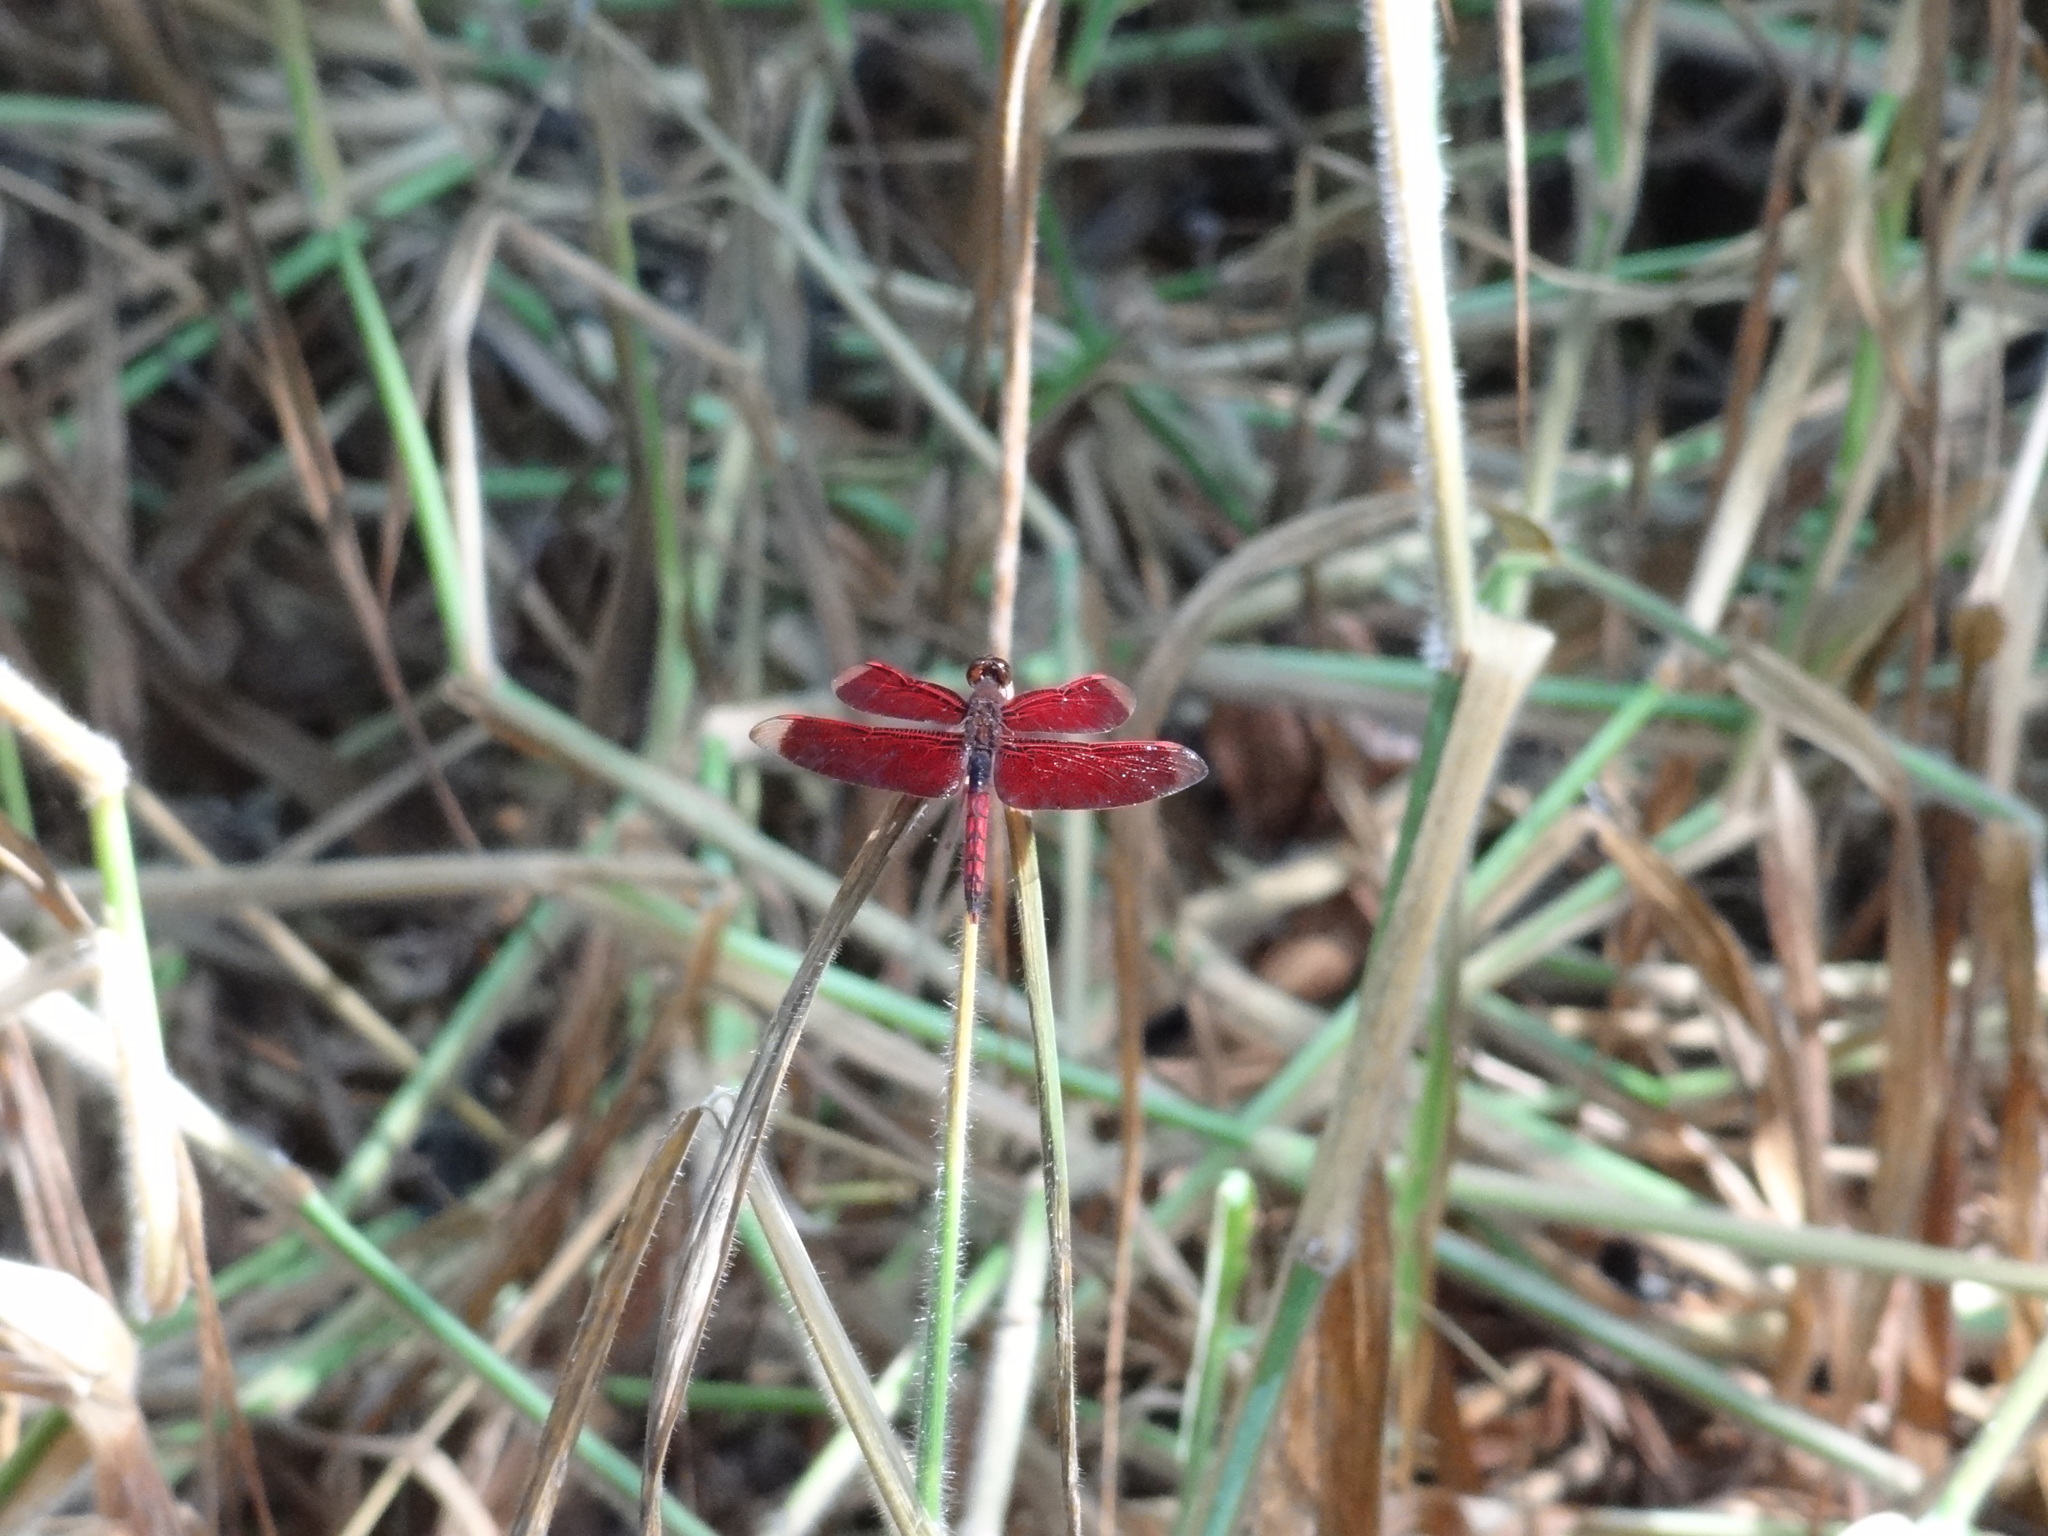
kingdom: Animalia
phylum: Arthropoda
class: Insecta
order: Odonata
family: Libellulidae
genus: Neurothemis
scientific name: Neurothemis taiwanensis
